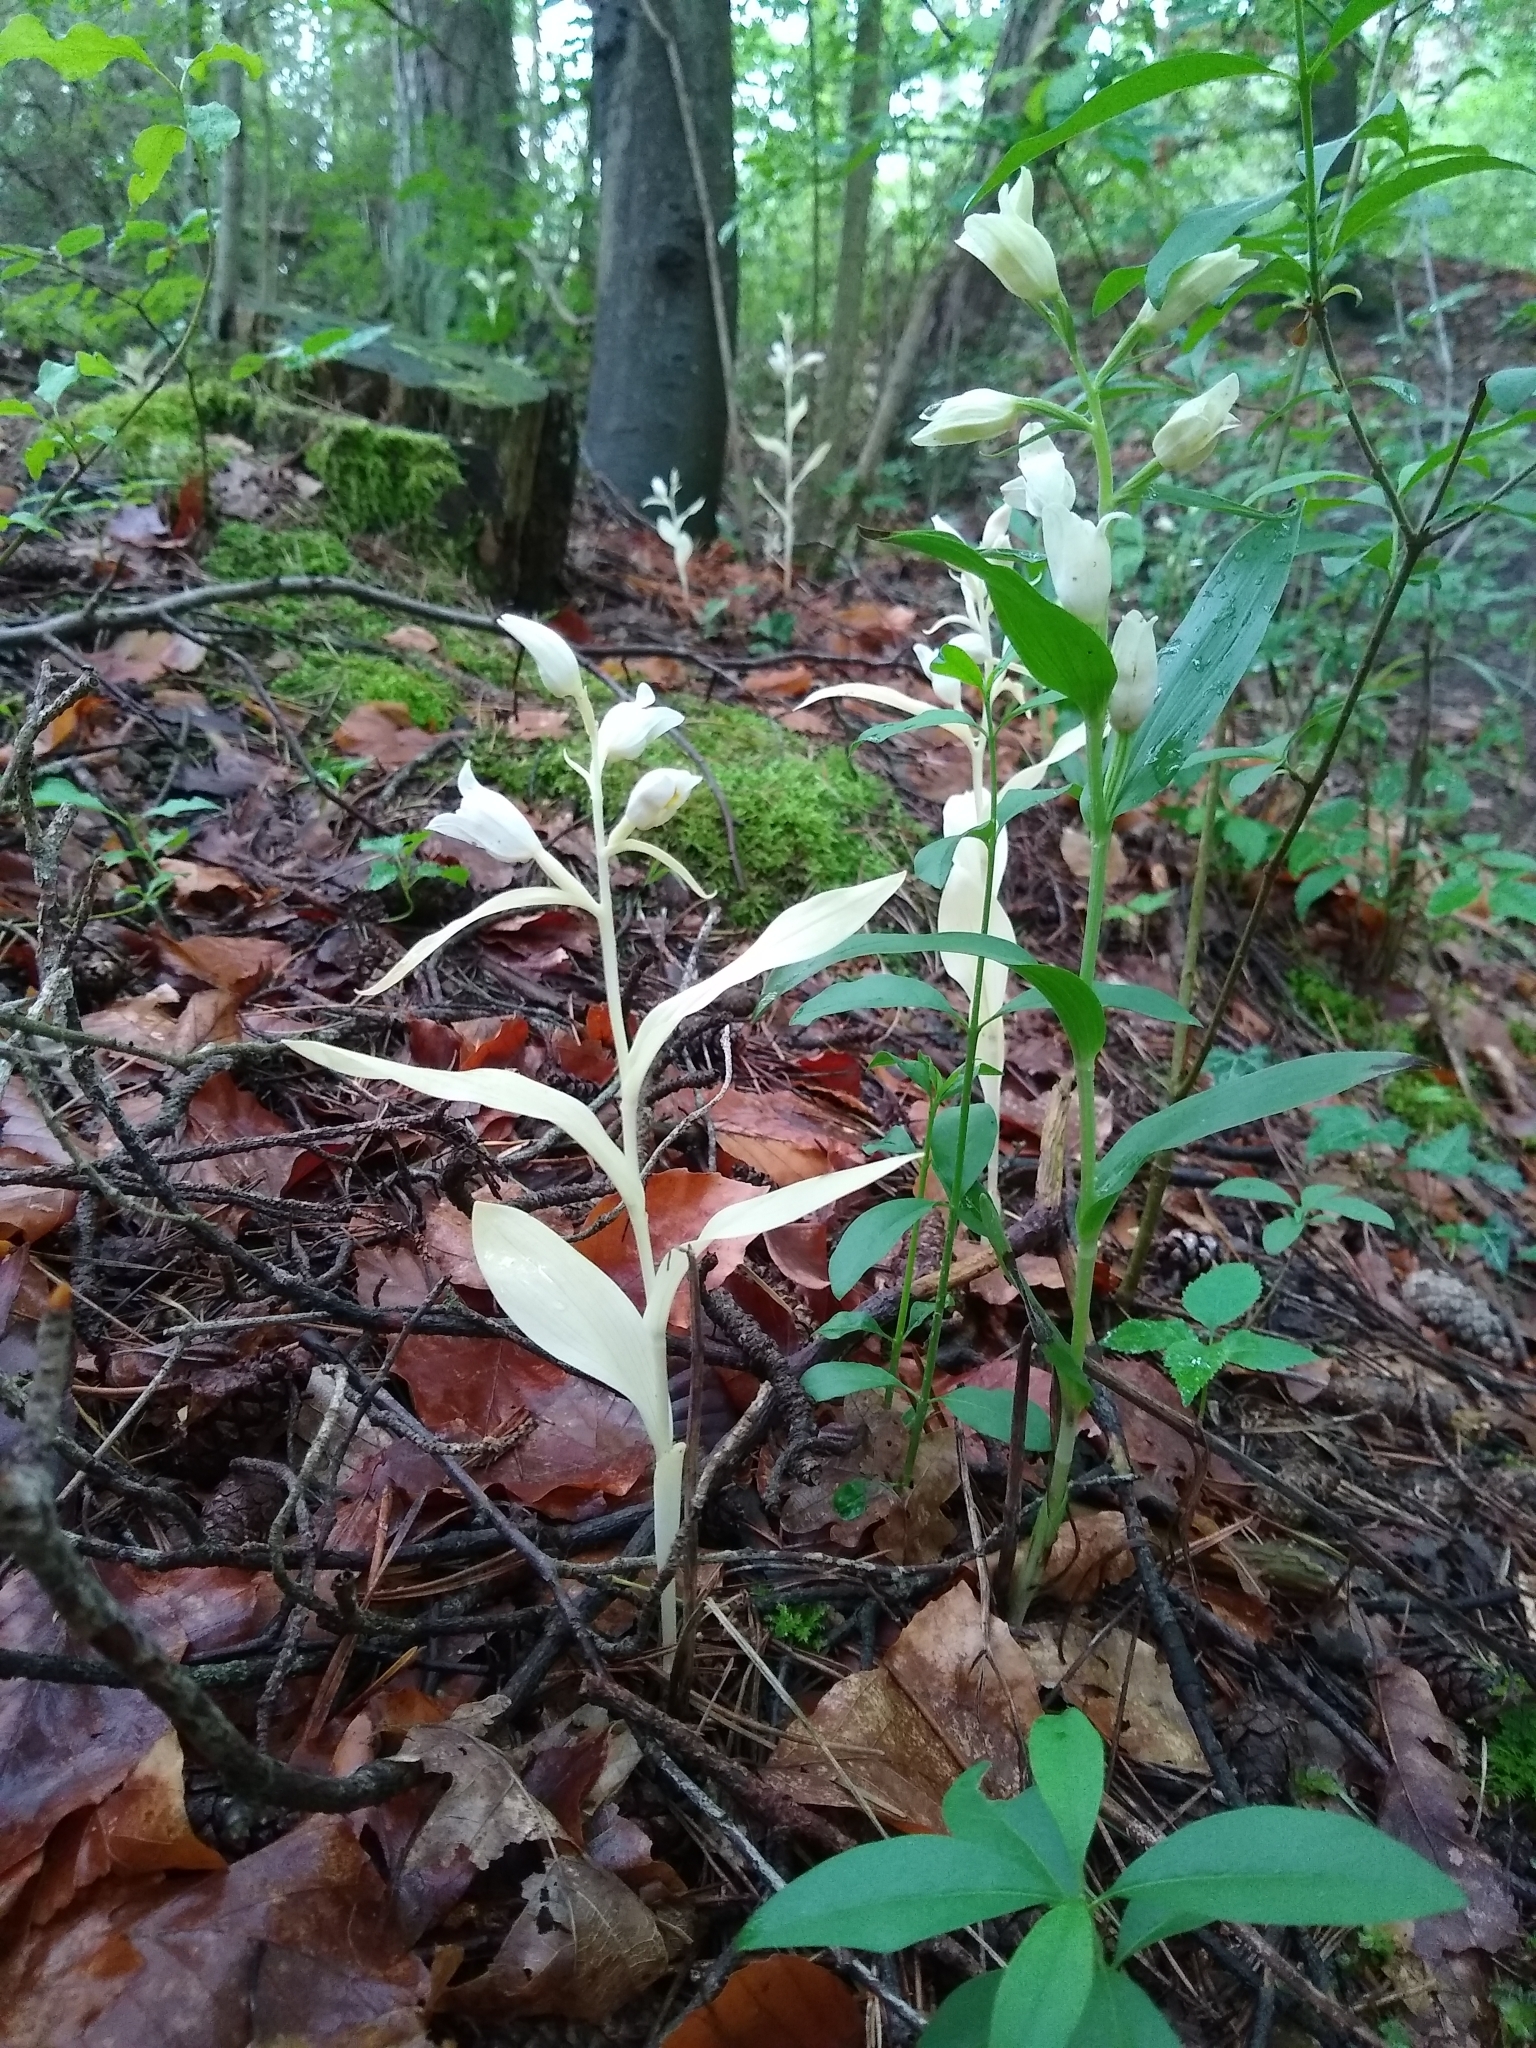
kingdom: Plantae
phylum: Tracheophyta
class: Liliopsida
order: Asparagales
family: Orchidaceae
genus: Cephalanthera
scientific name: Cephalanthera damasonium
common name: White helleborine
